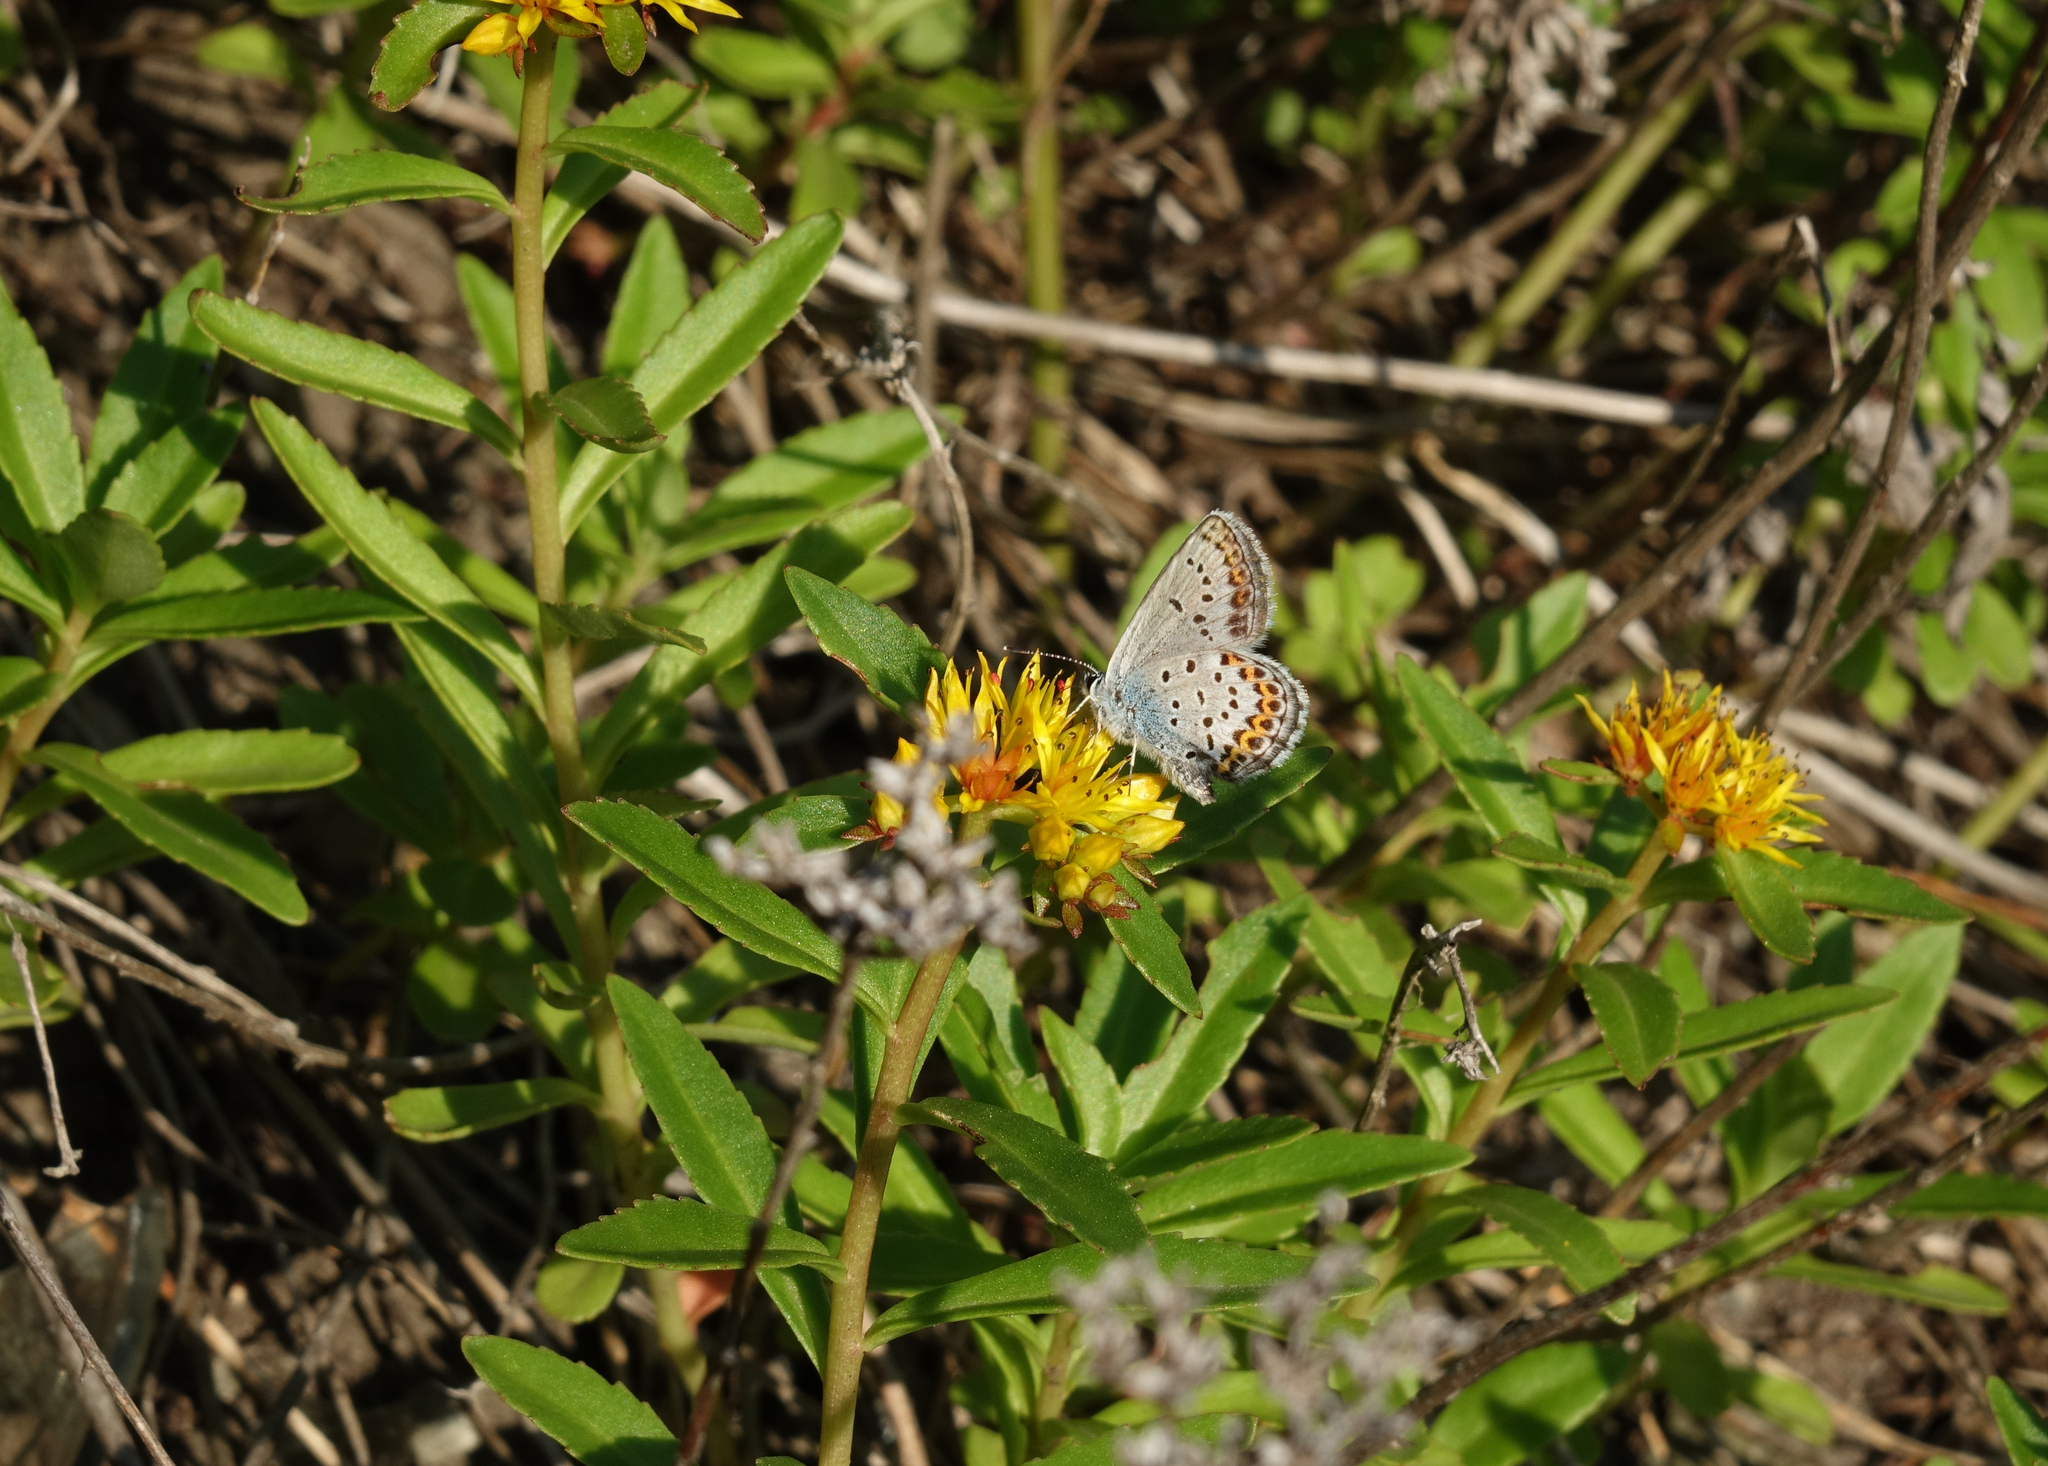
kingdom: Plantae
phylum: Tracheophyta
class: Magnoliopsida
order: Saxifragales
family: Crassulaceae
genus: Phedimus
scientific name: Phedimus aizoon
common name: Orpin aizoon
